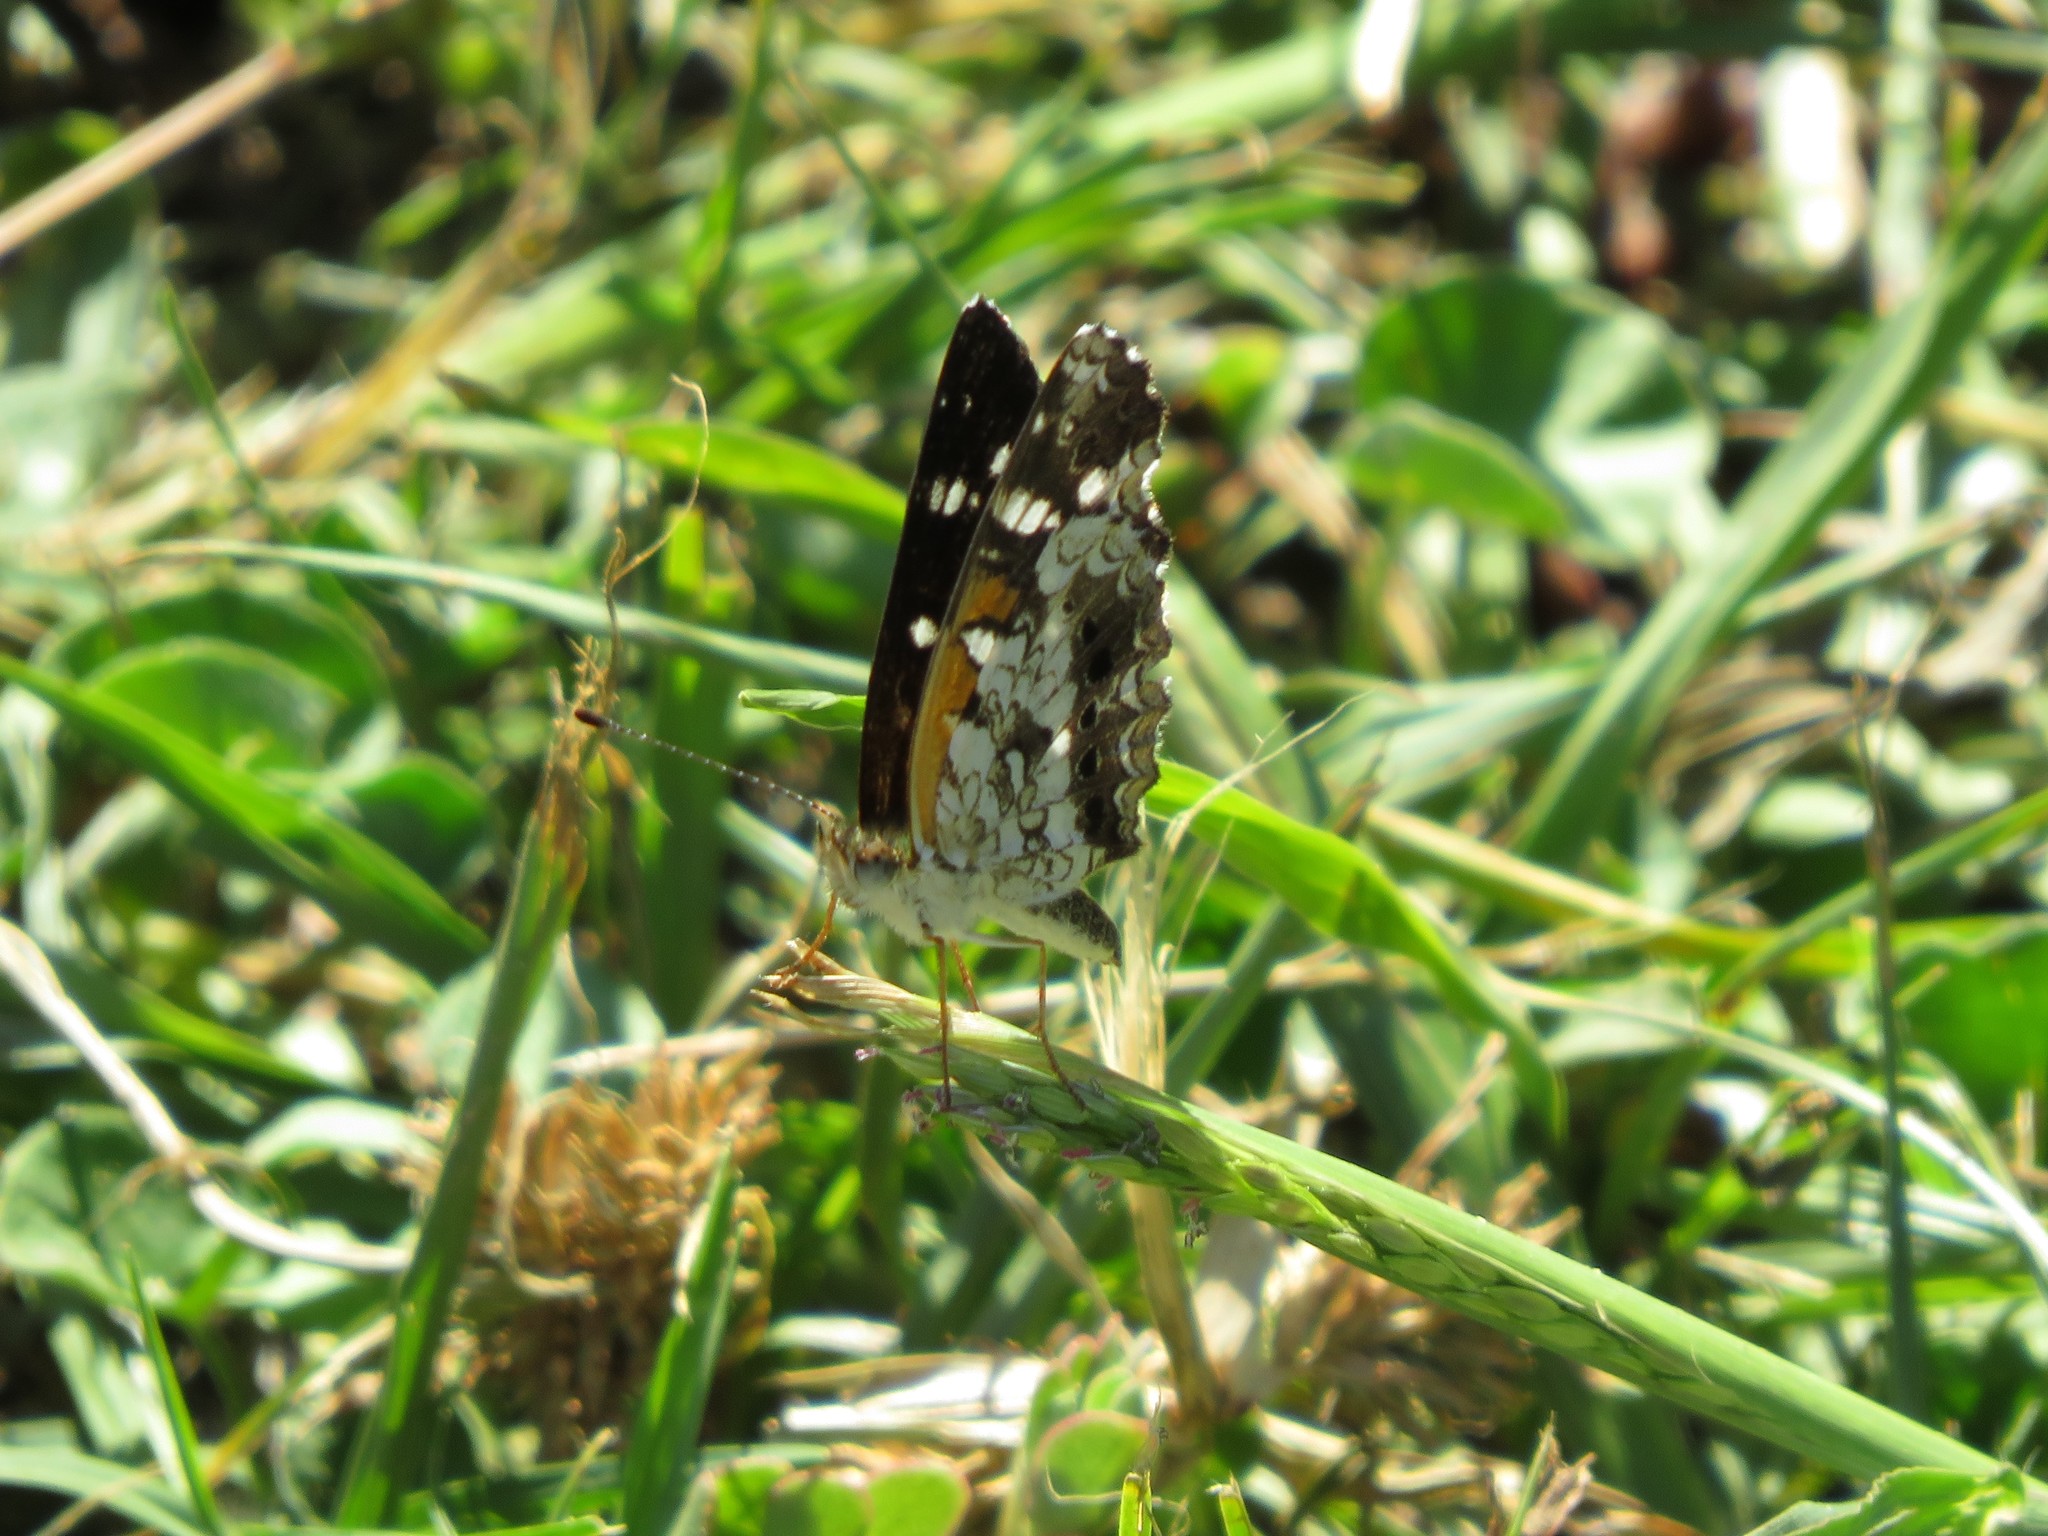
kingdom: Animalia
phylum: Arthropoda
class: Insecta
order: Lepidoptera
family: Nymphalidae
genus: Ortilia
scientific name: Ortilia ithra
